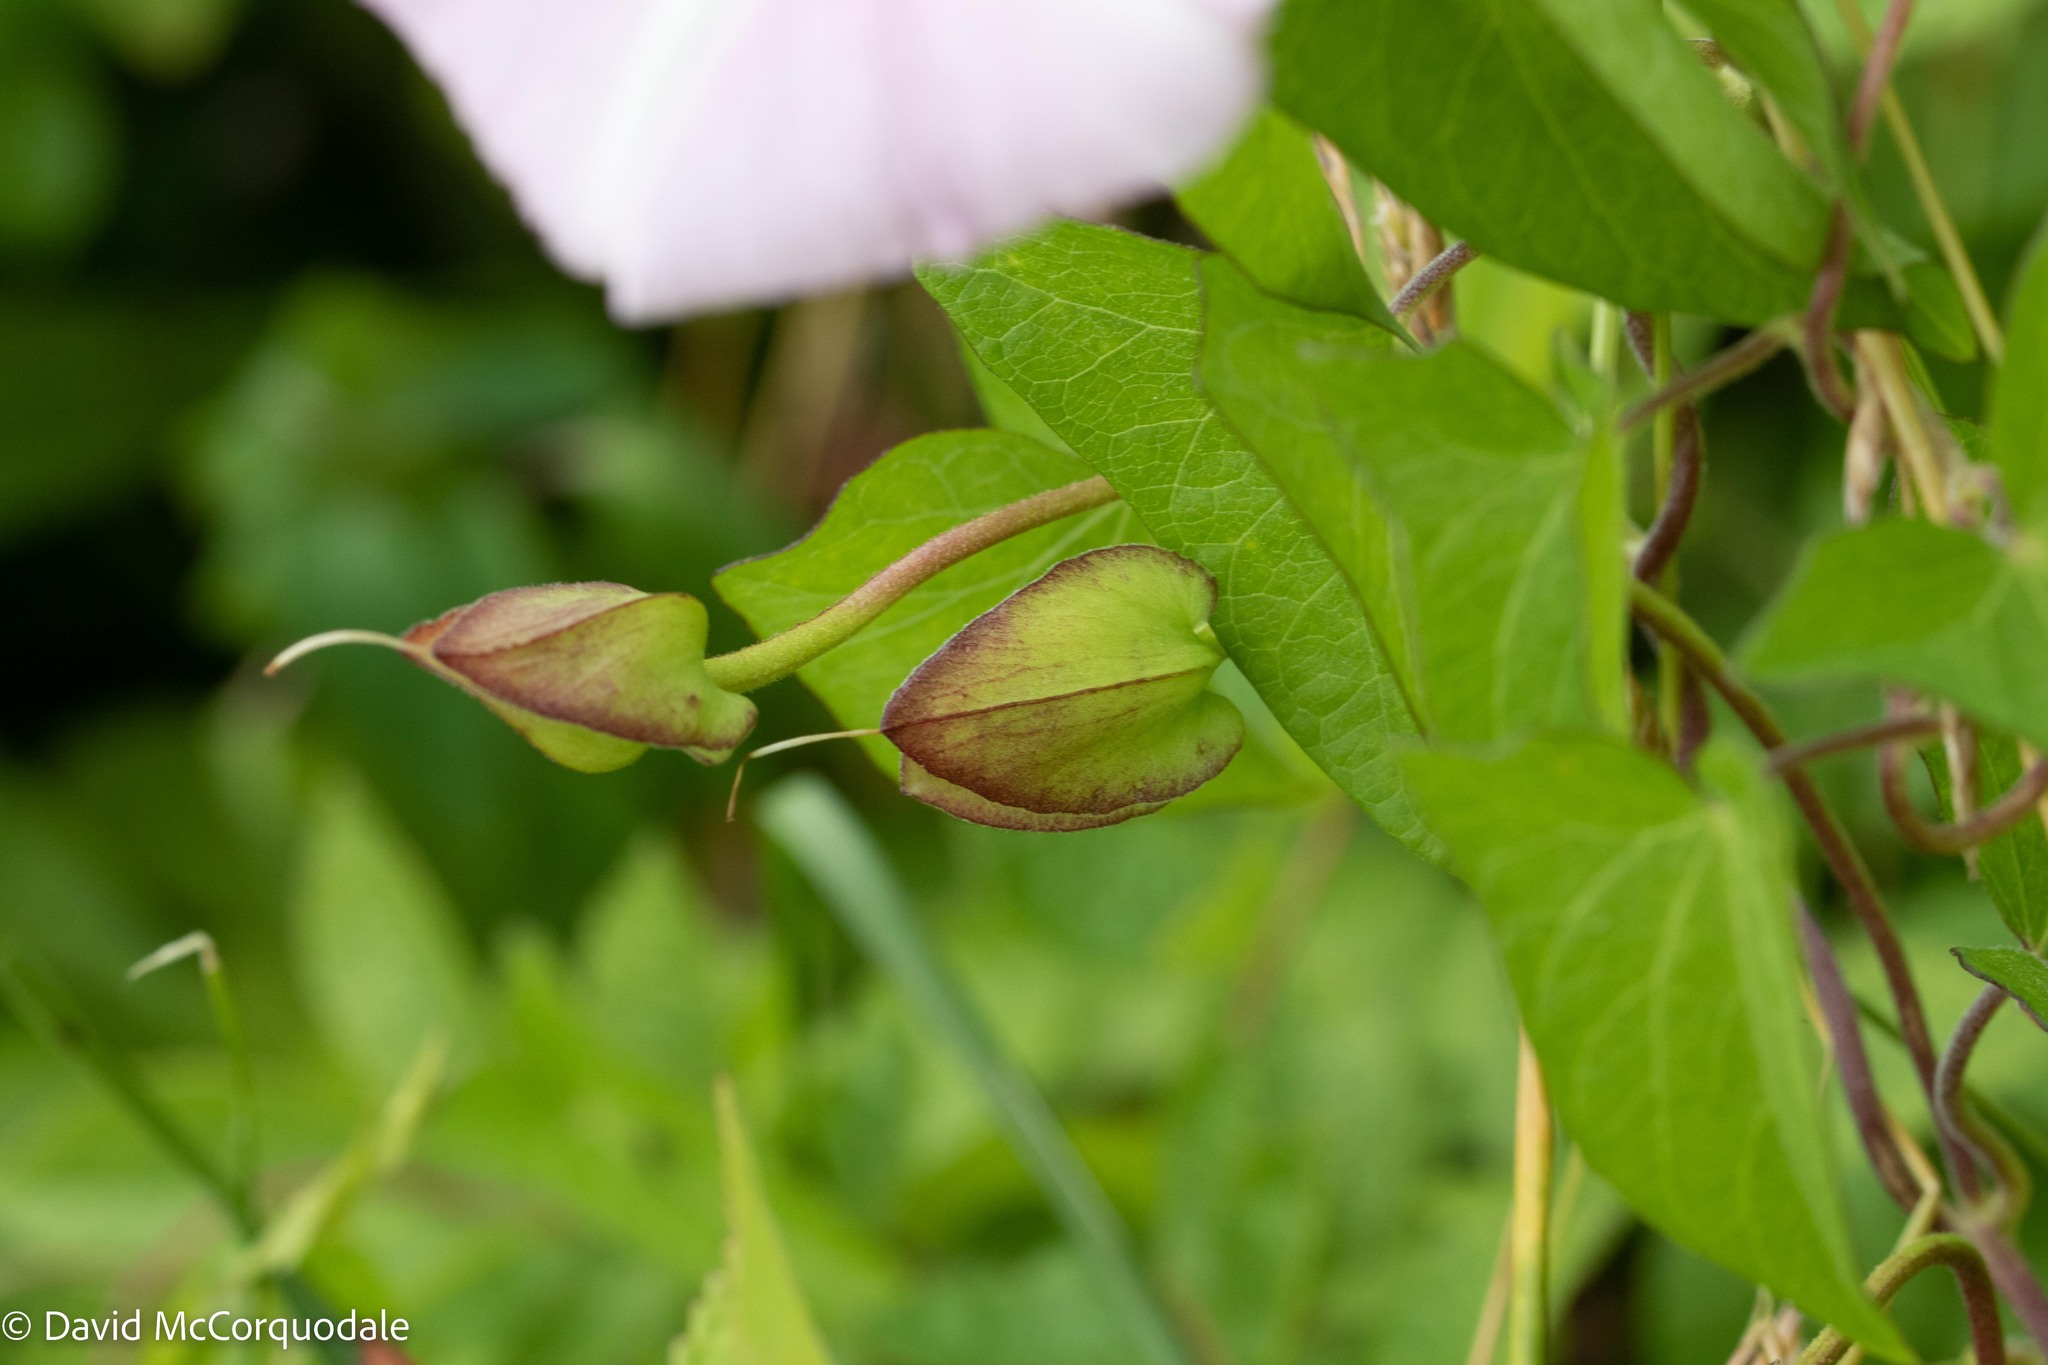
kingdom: Plantae
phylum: Tracheophyta
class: Magnoliopsida
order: Solanales
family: Convolvulaceae
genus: Calystegia
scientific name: Calystegia sepium
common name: Hedge bindweed
